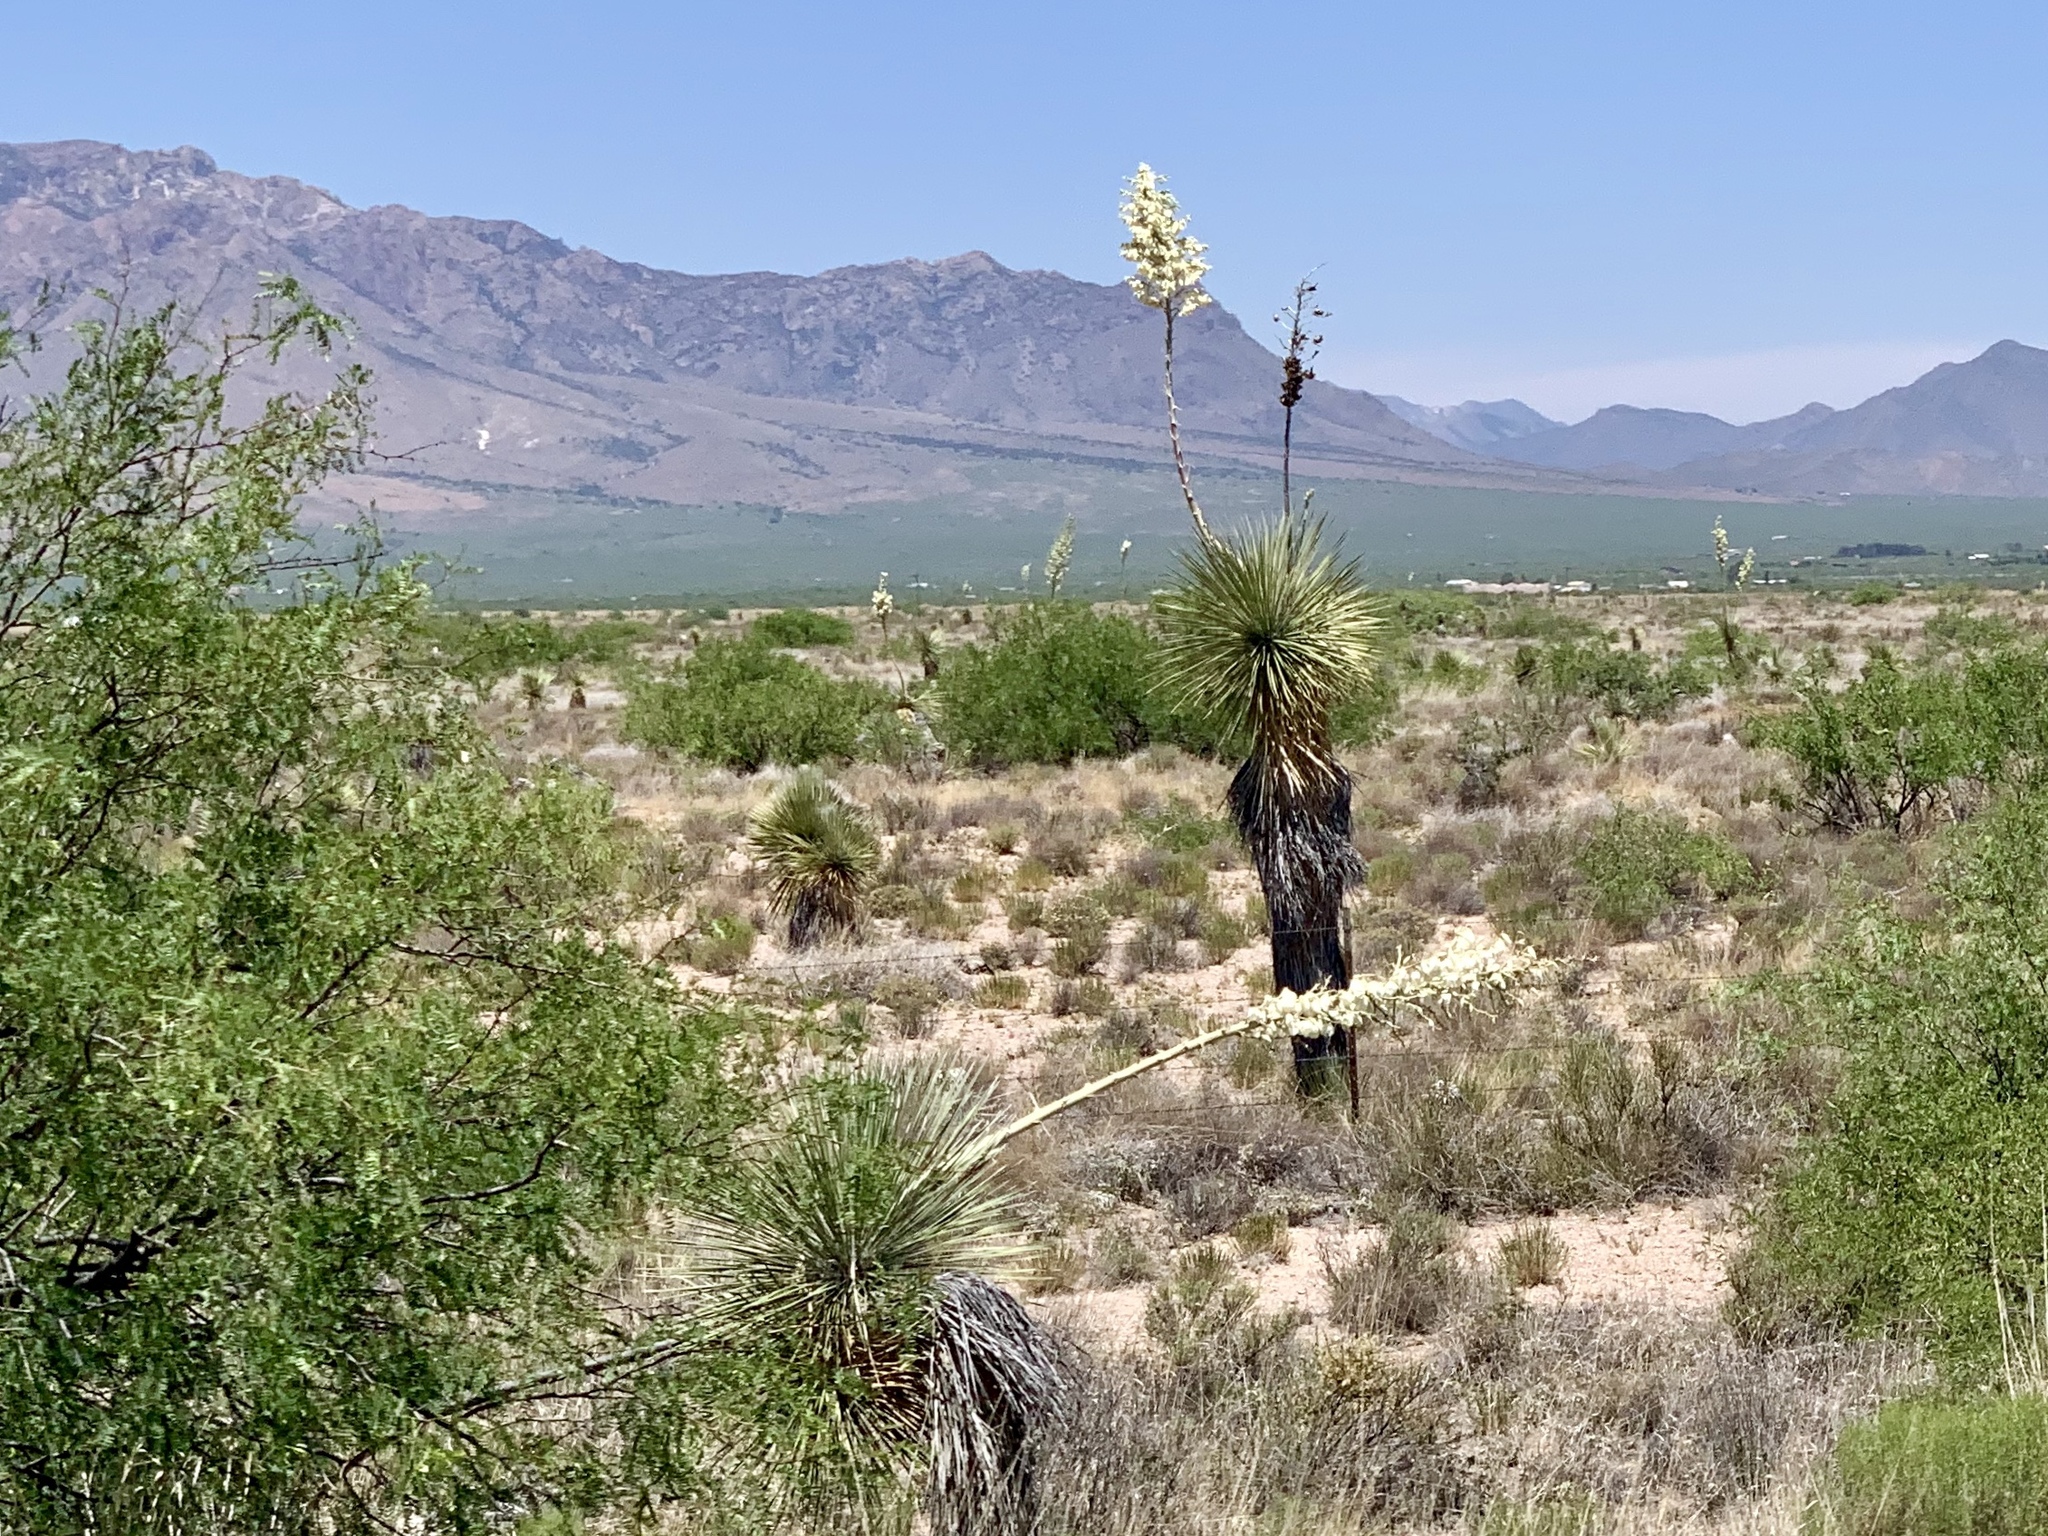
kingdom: Plantae
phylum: Tracheophyta
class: Liliopsida
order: Asparagales
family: Asparagaceae
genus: Yucca
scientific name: Yucca elata
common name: Palmella
